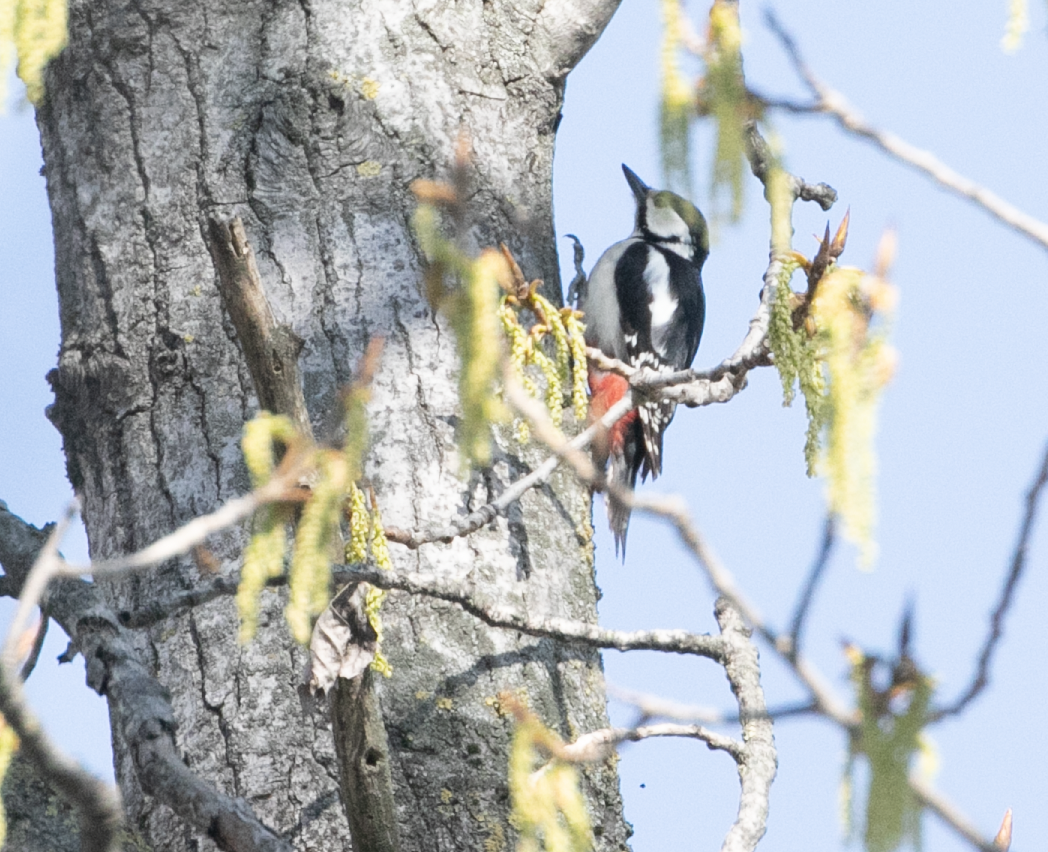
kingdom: Animalia
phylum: Chordata
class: Aves
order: Piciformes
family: Picidae
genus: Dendrocopos
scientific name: Dendrocopos major
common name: Great spotted woodpecker
